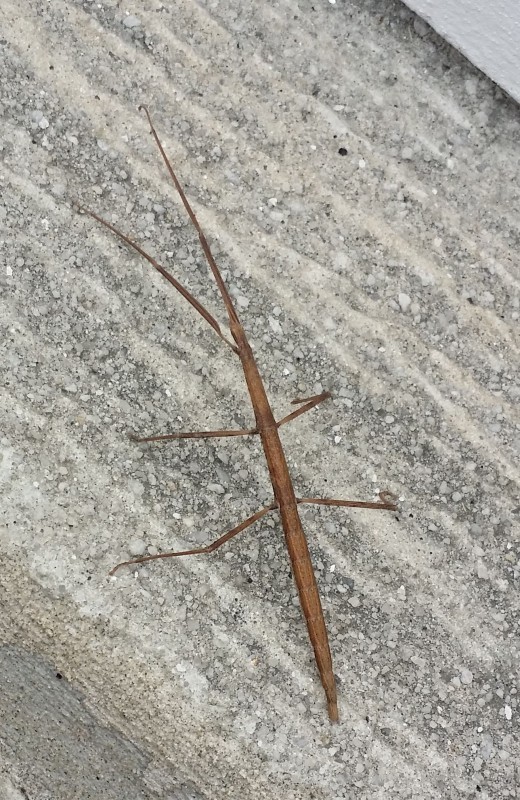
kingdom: Animalia
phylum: Arthropoda
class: Insecta
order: Phasmida
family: Bacillidae
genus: Clonopsis
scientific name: Clonopsis gallica
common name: French stick insect
